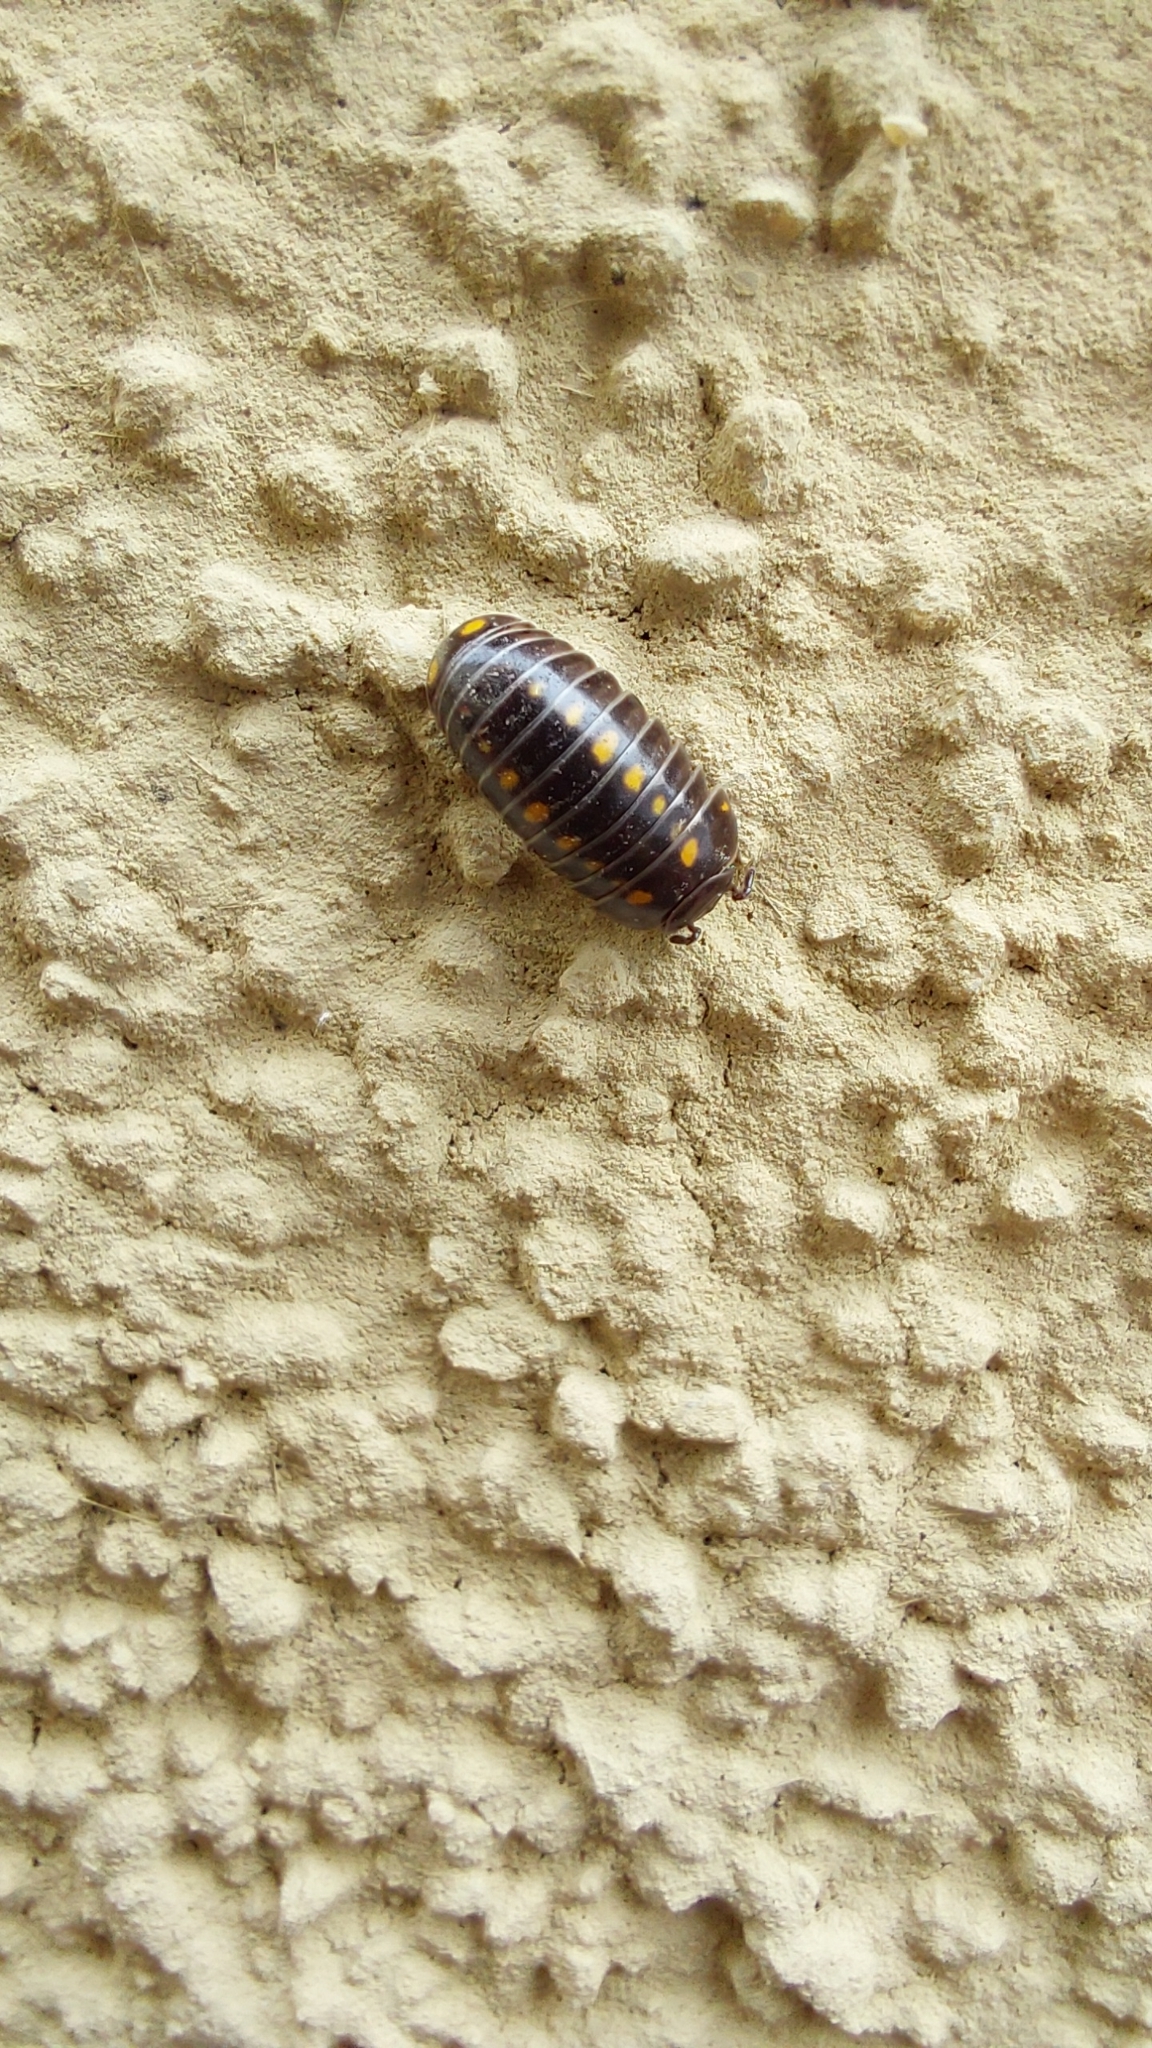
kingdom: Animalia
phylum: Arthropoda
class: Diplopoda
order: Glomerida
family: Glomeridae
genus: Glomeris
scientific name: Glomeris pustulata
